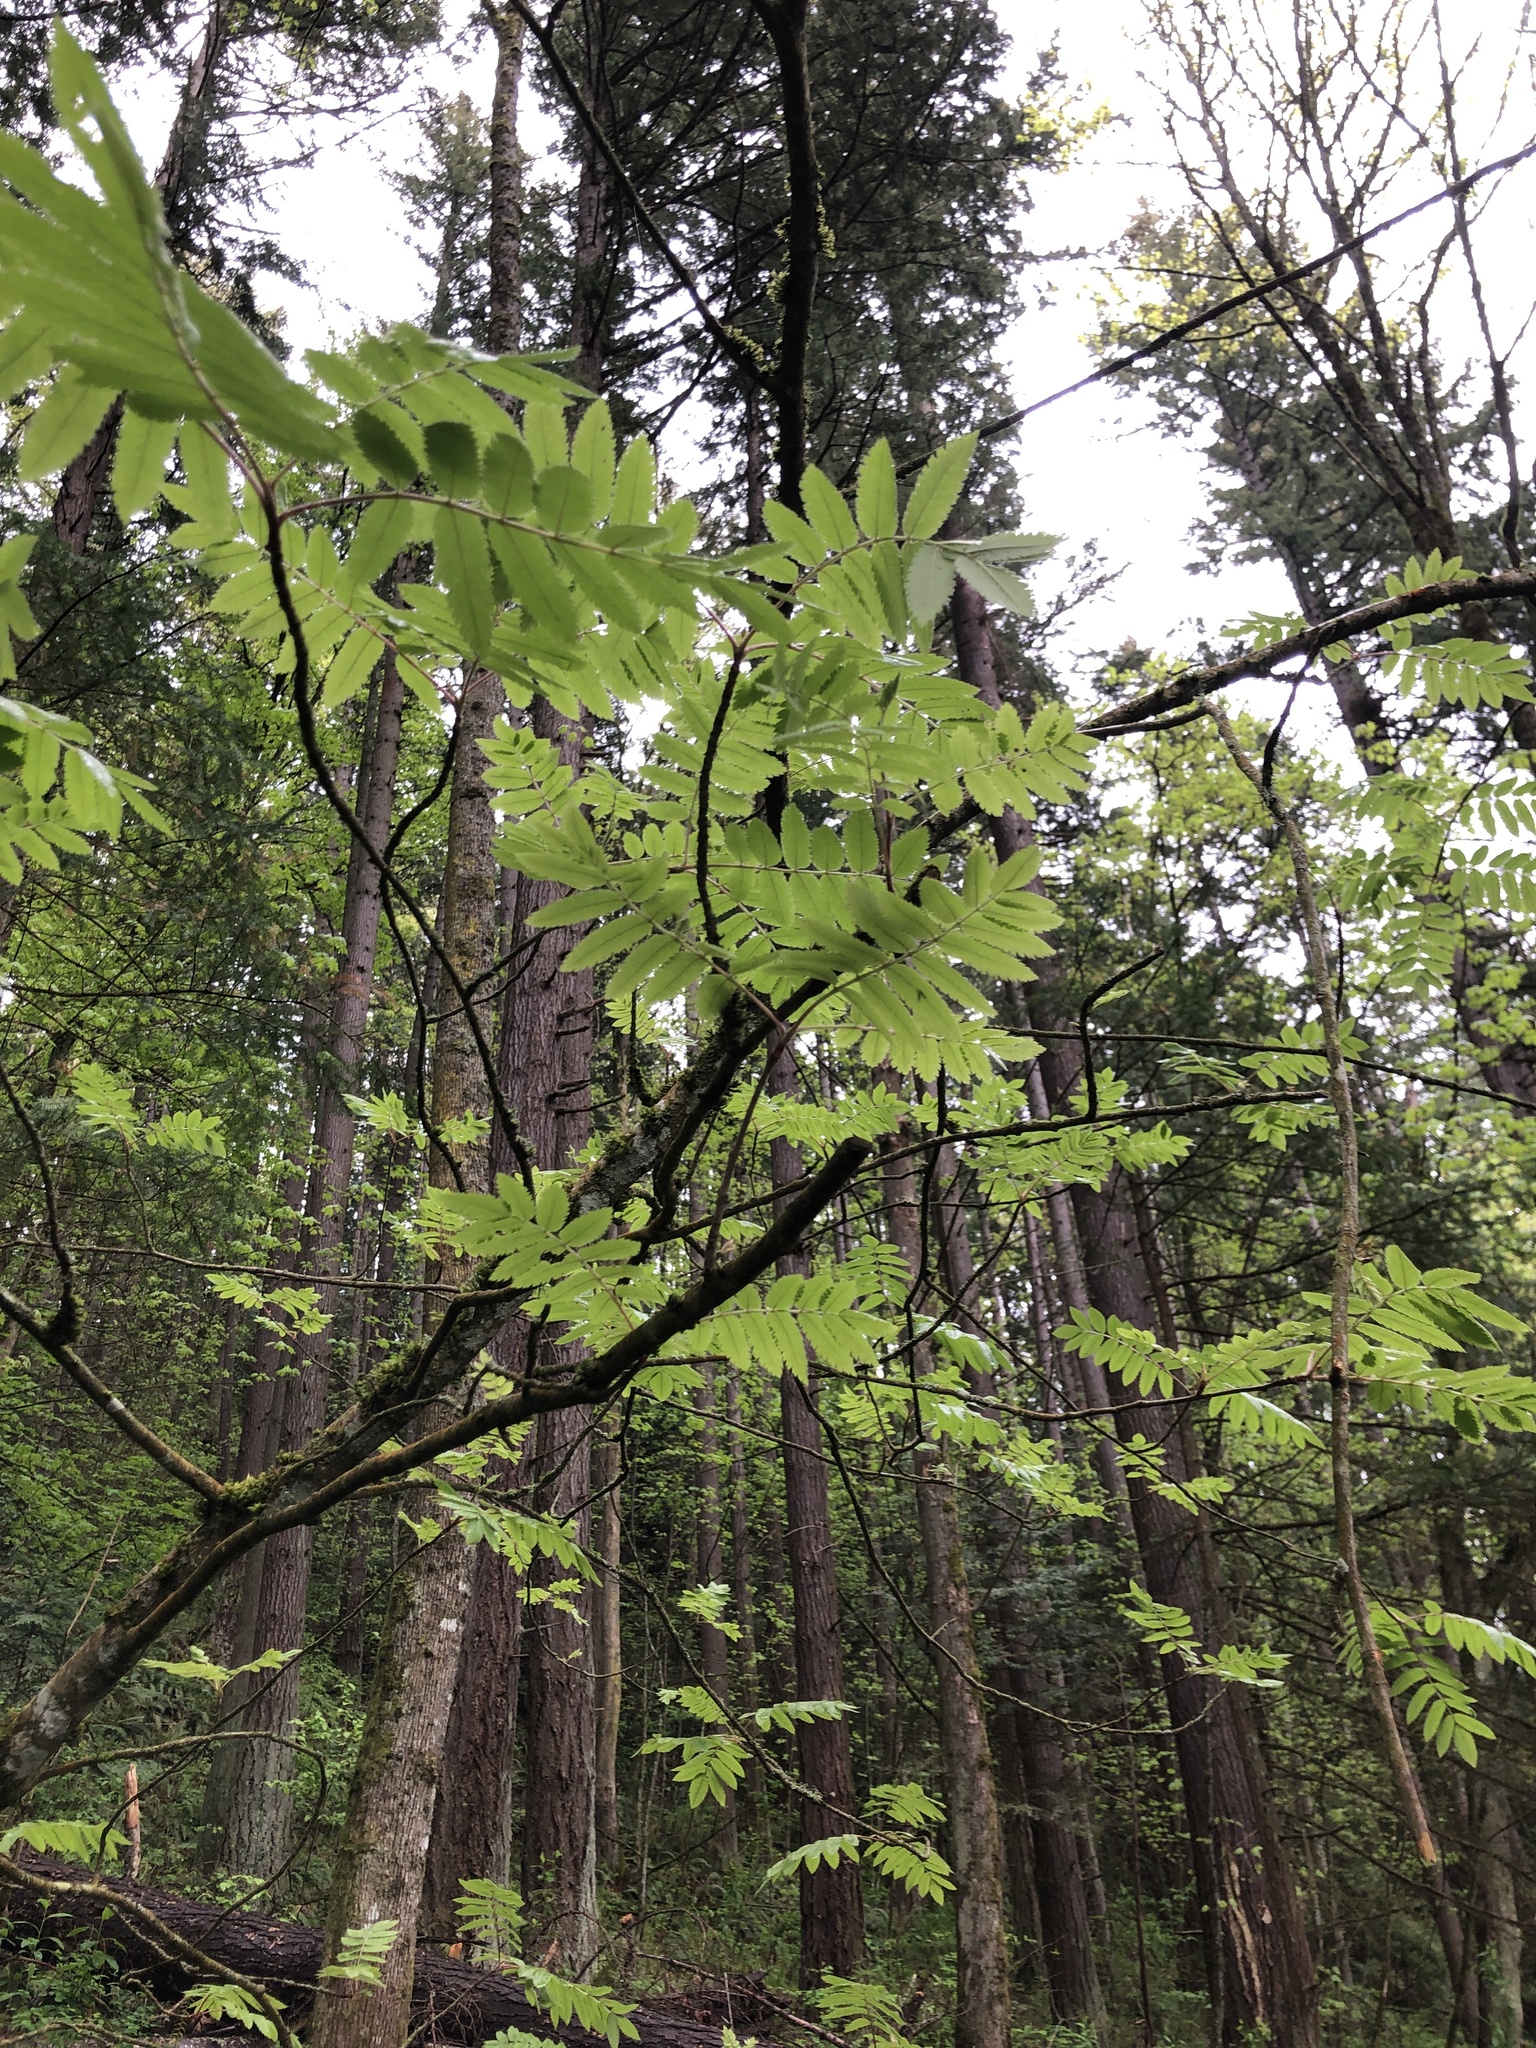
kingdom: Plantae
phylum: Tracheophyta
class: Magnoliopsida
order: Rosales
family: Rosaceae
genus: Sorbus
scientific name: Sorbus aucuparia
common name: Rowan
